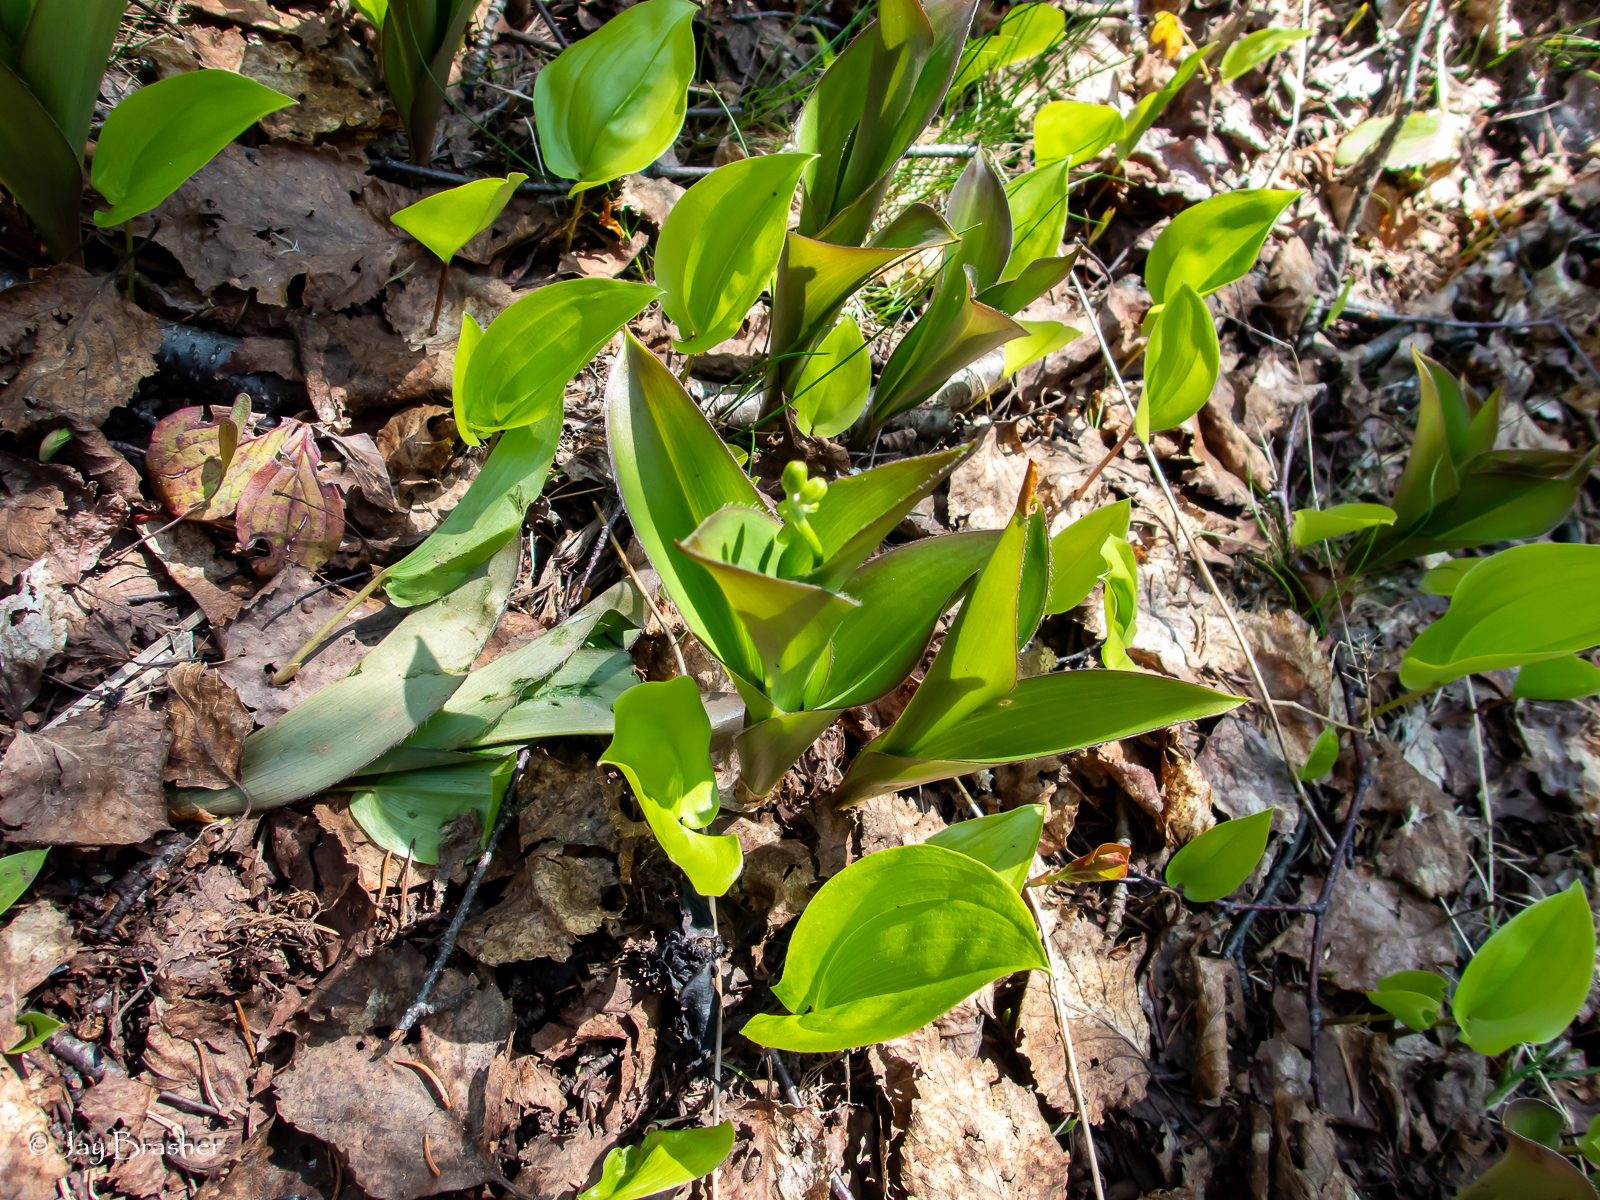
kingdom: Plantae
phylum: Tracheophyta
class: Liliopsida
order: Liliales
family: Liliaceae
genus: Clintonia
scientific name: Clintonia borealis
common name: Yellow clintonia
